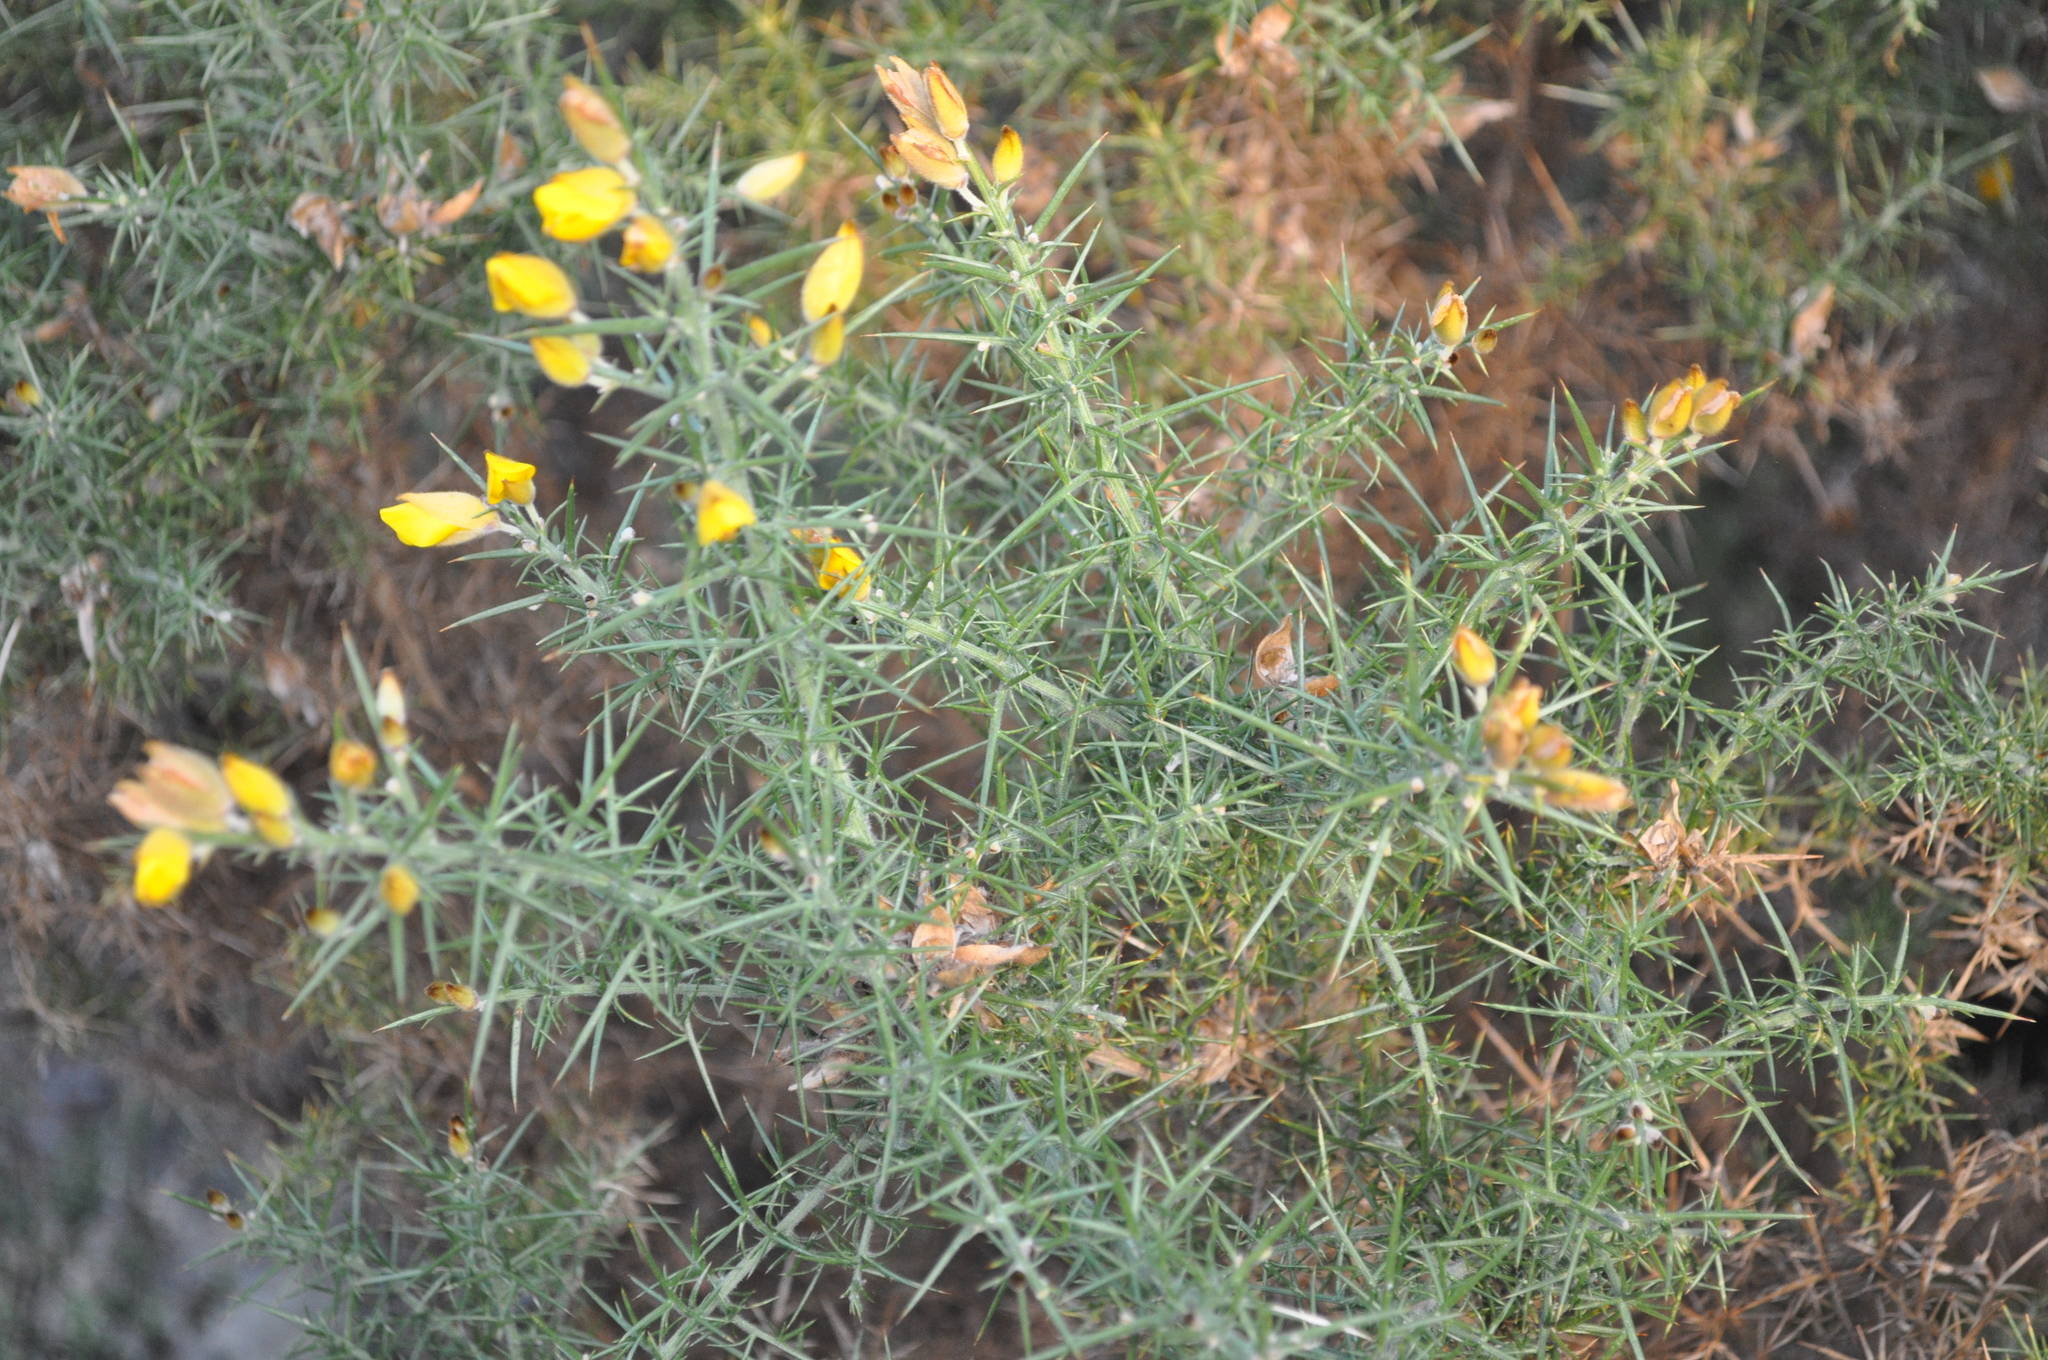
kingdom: Plantae
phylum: Tracheophyta
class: Magnoliopsida
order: Fabales
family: Fabaceae
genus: Ulex
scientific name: Ulex europaeus
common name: Common gorse
